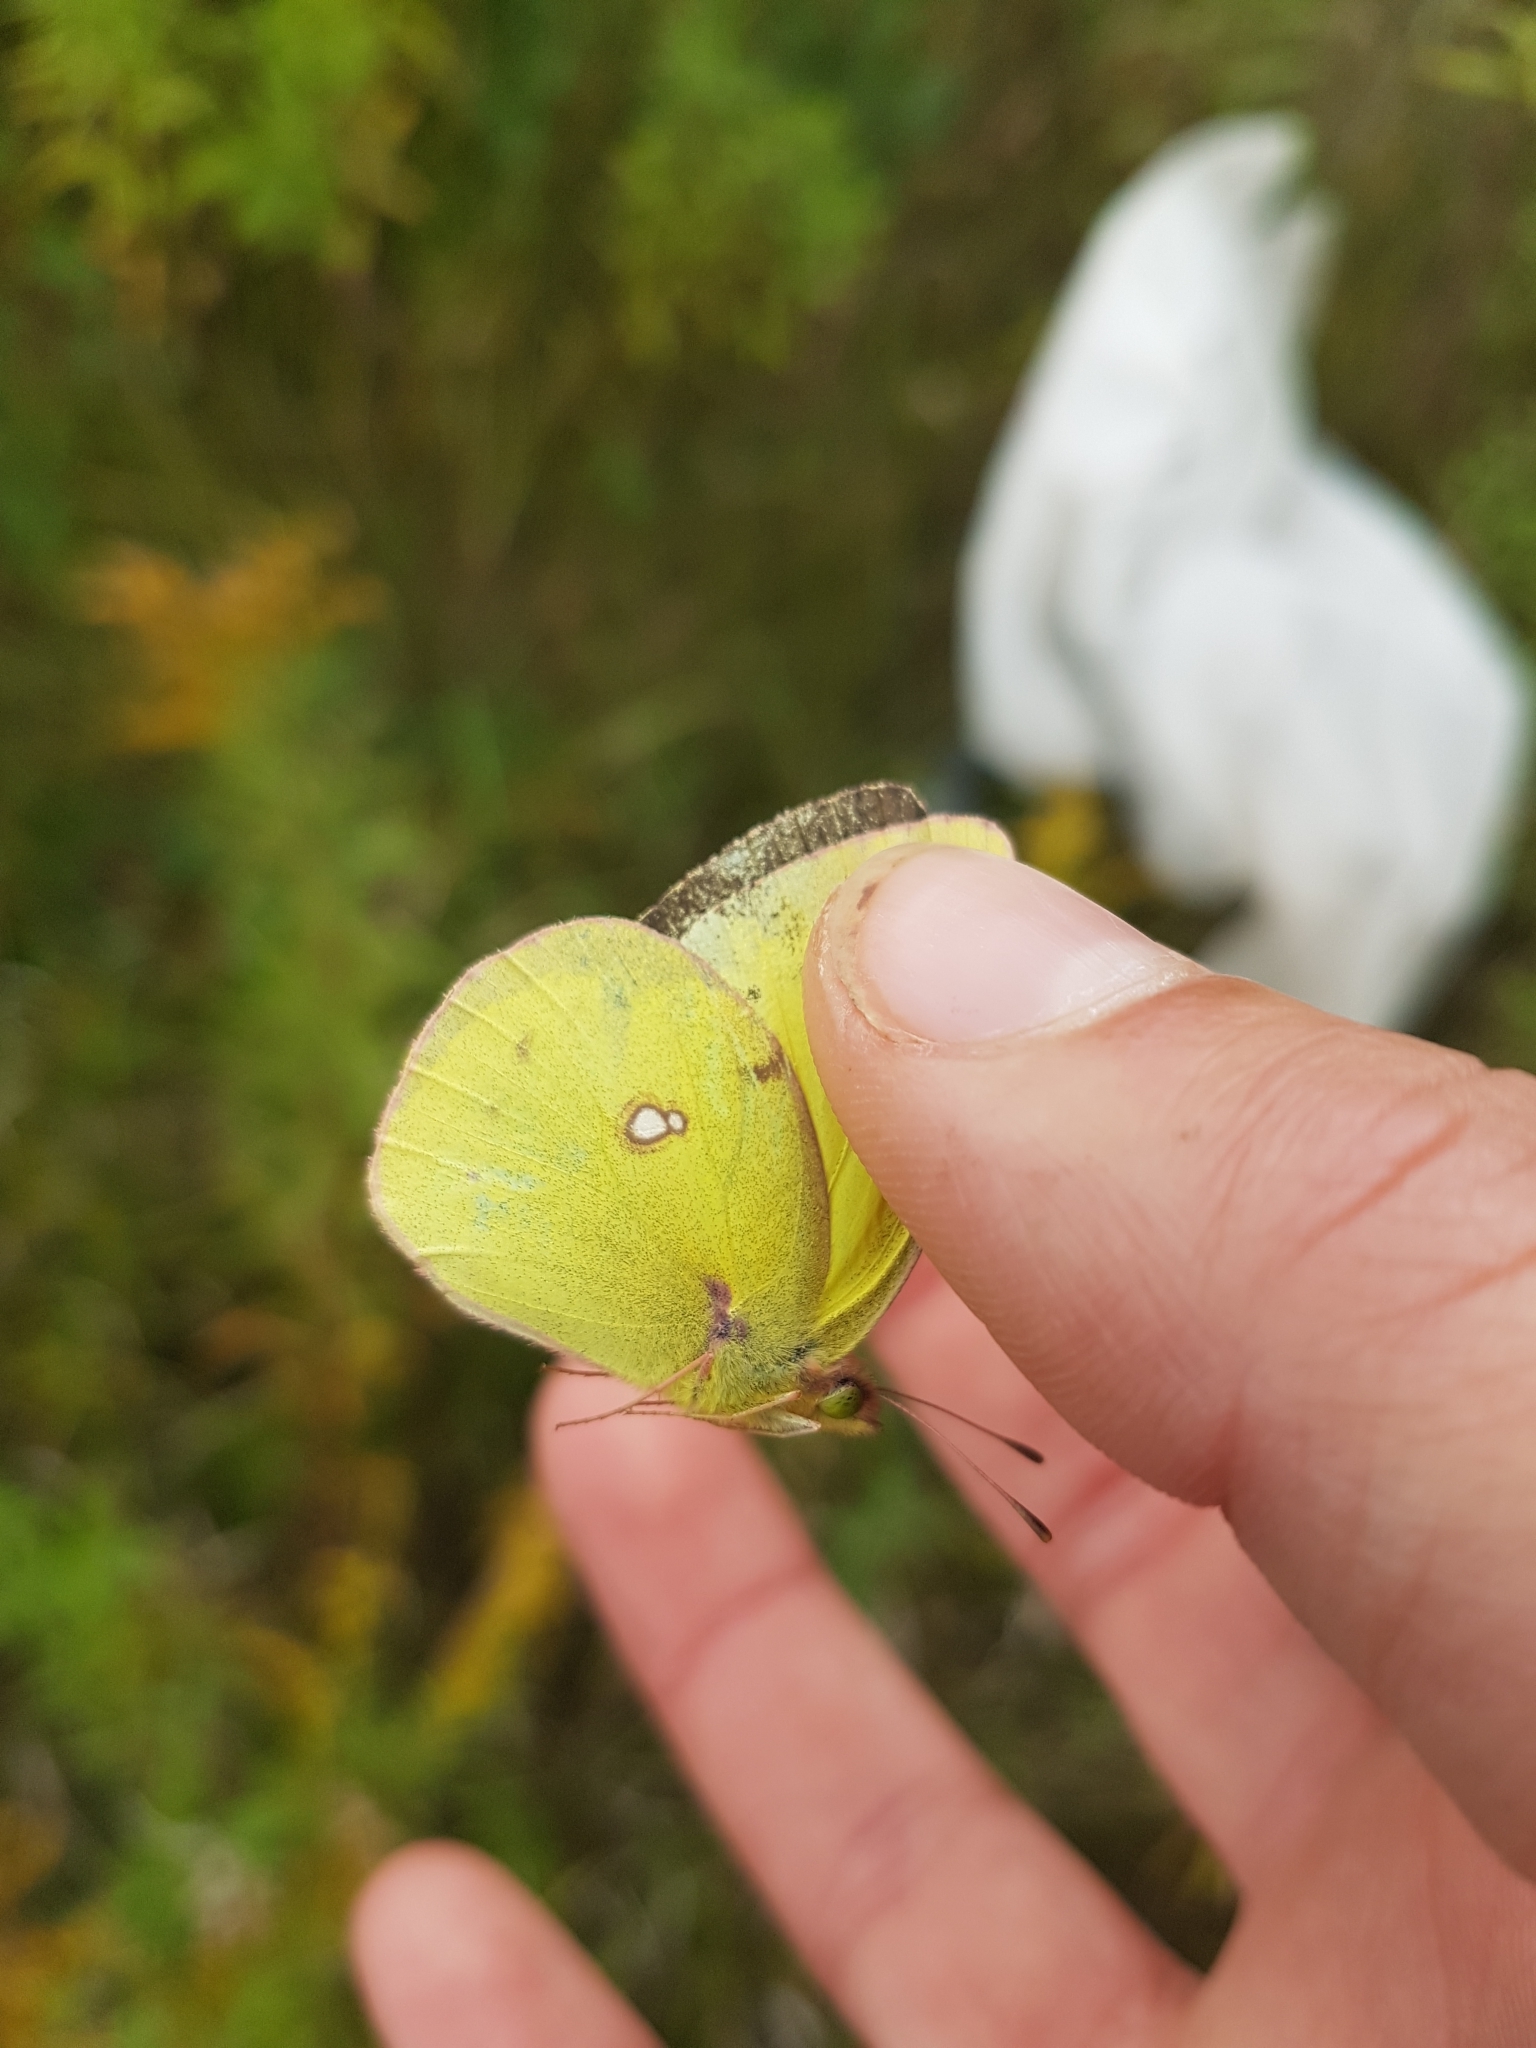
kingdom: Animalia
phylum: Arthropoda
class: Insecta
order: Lepidoptera
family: Pieridae
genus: Colias
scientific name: Colias philodice
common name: Clouded sulphur
